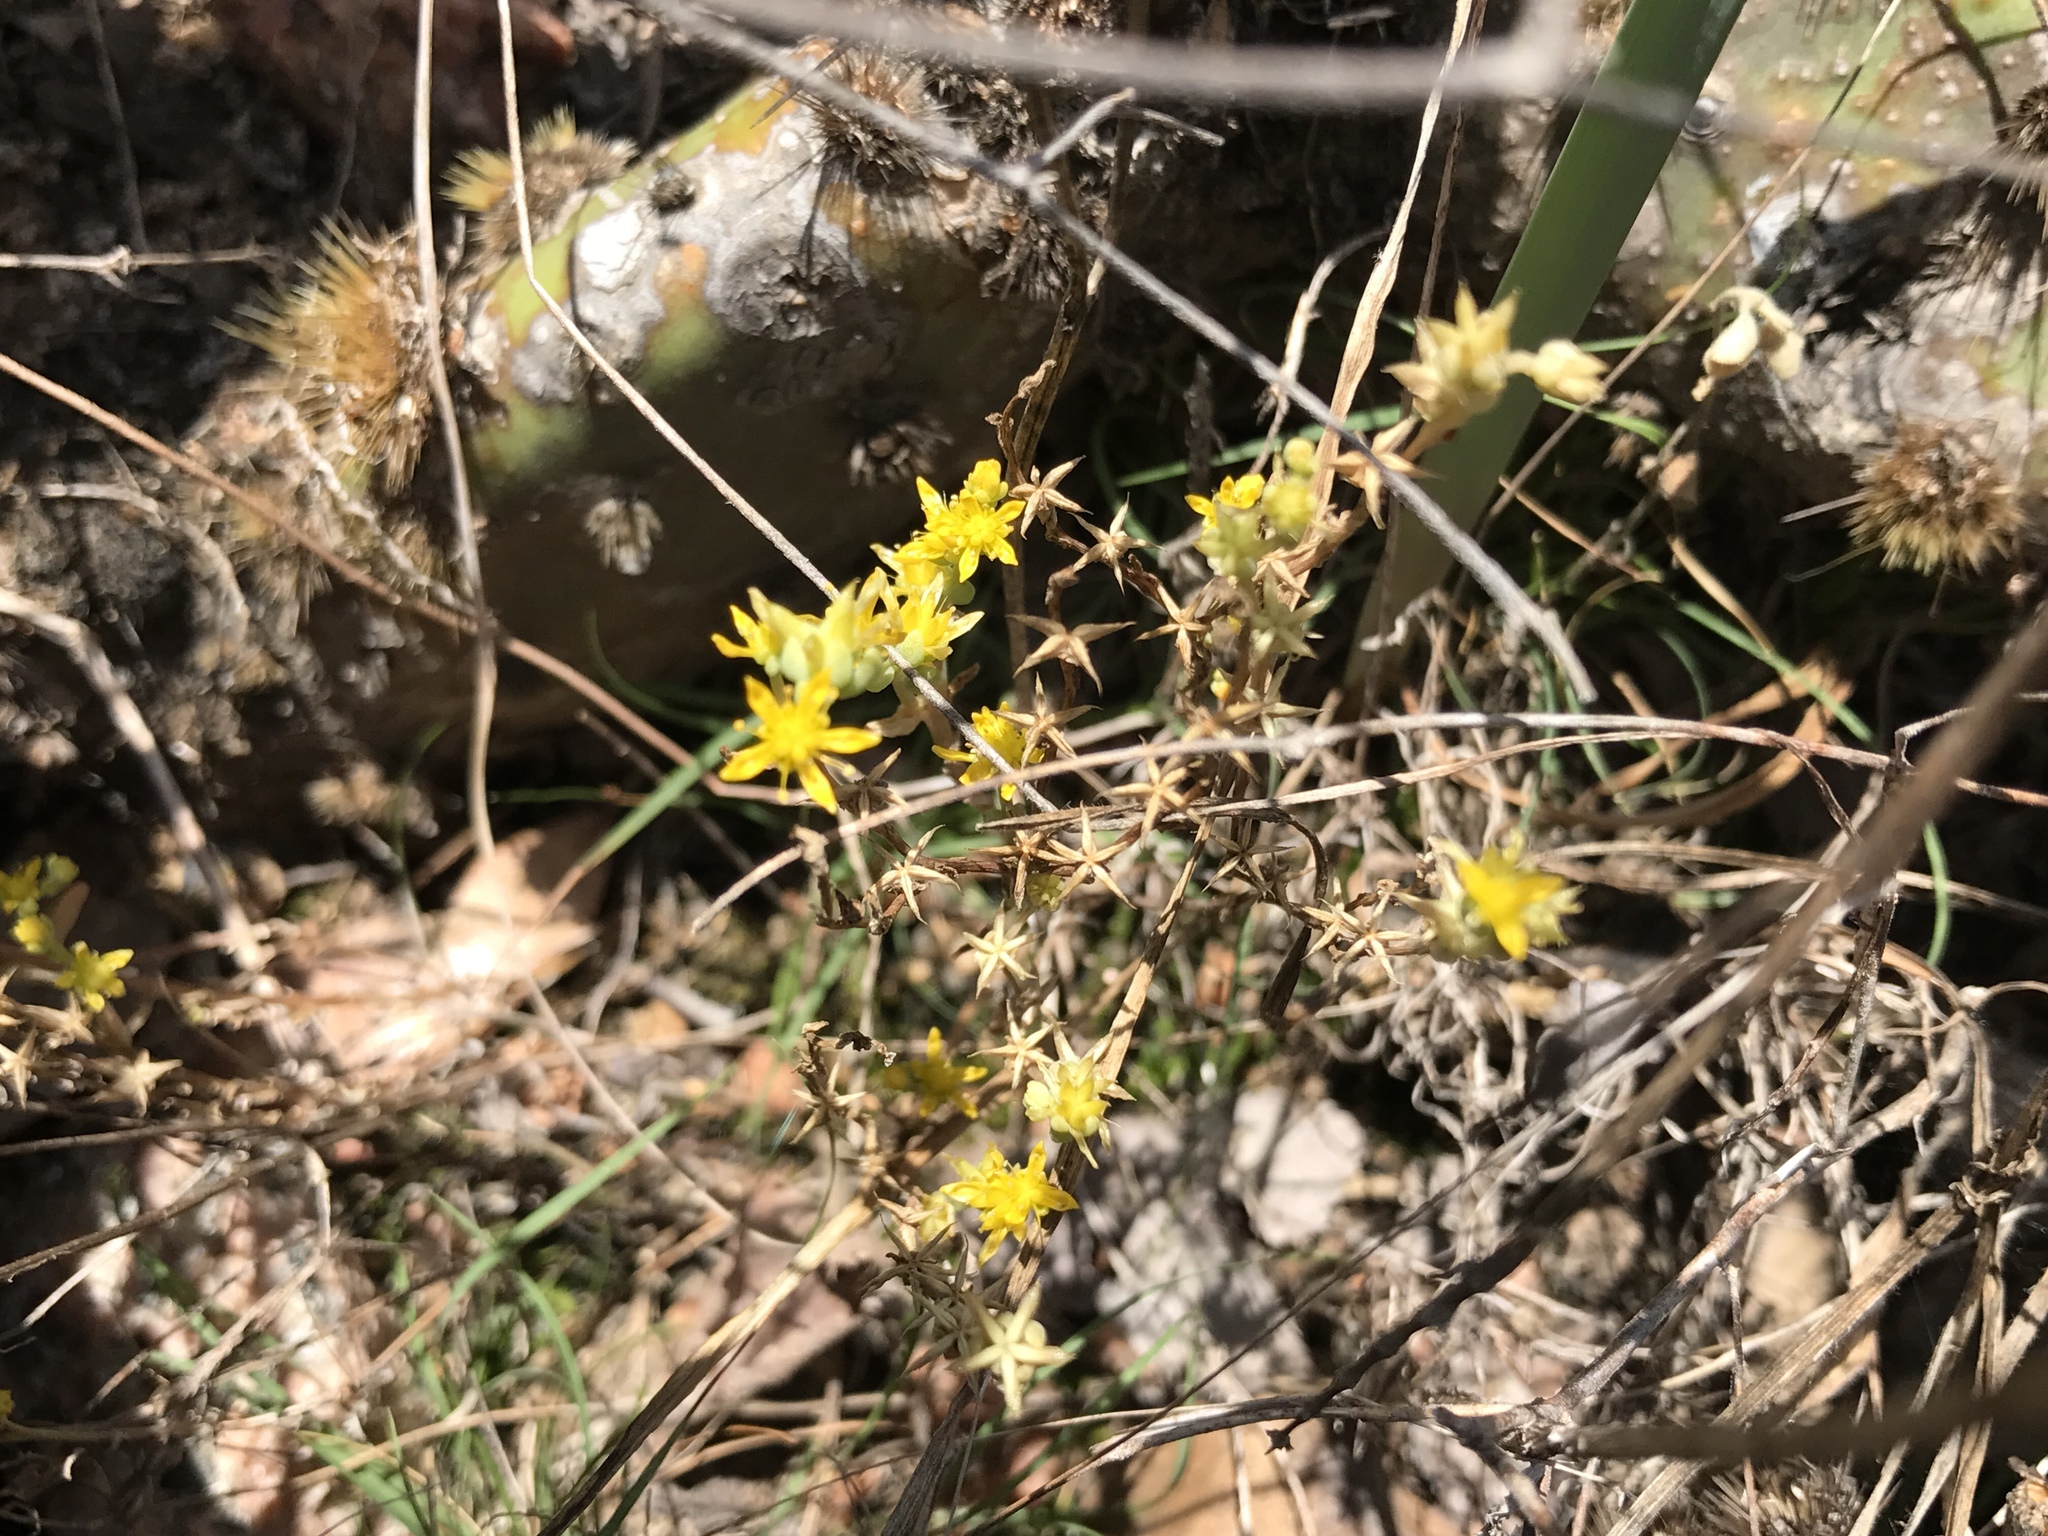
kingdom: Plantae
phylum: Tracheophyta
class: Magnoliopsida
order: Saxifragales
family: Crassulaceae
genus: Sedum
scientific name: Sedum nuttallii
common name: Yellow stonecrop
